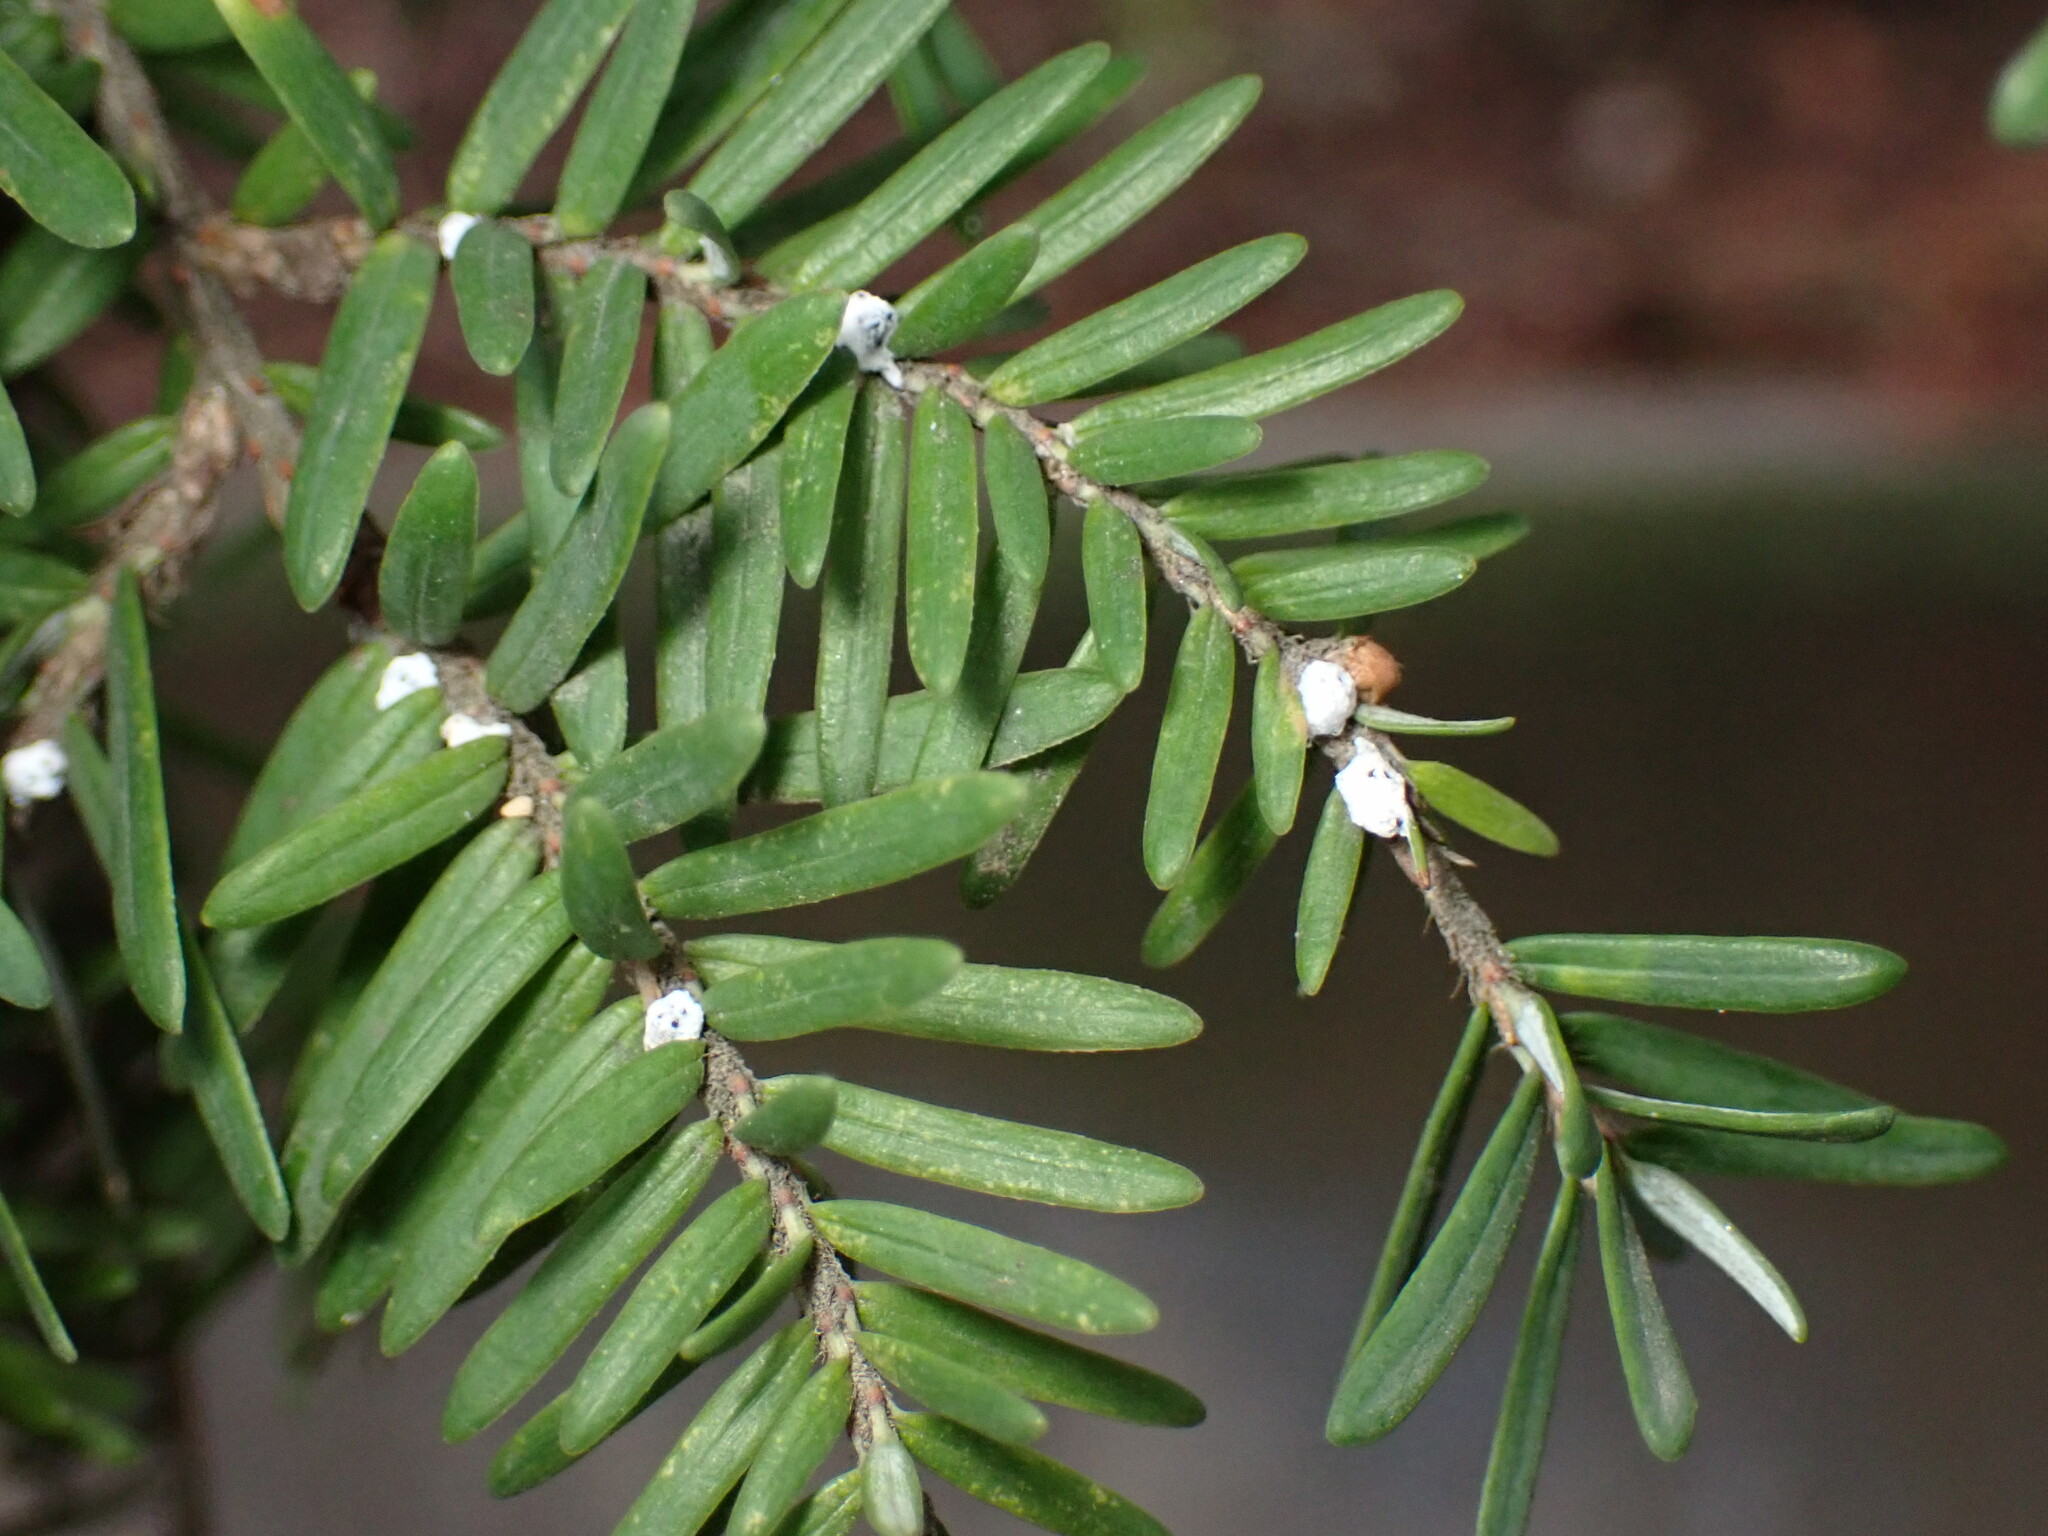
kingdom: Animalia
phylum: Arthropoda
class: Insecta
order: Hemiptera
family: Adelgidae
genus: Adelges
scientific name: Adelges tsugae
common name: Hemlock woolly adelgid
